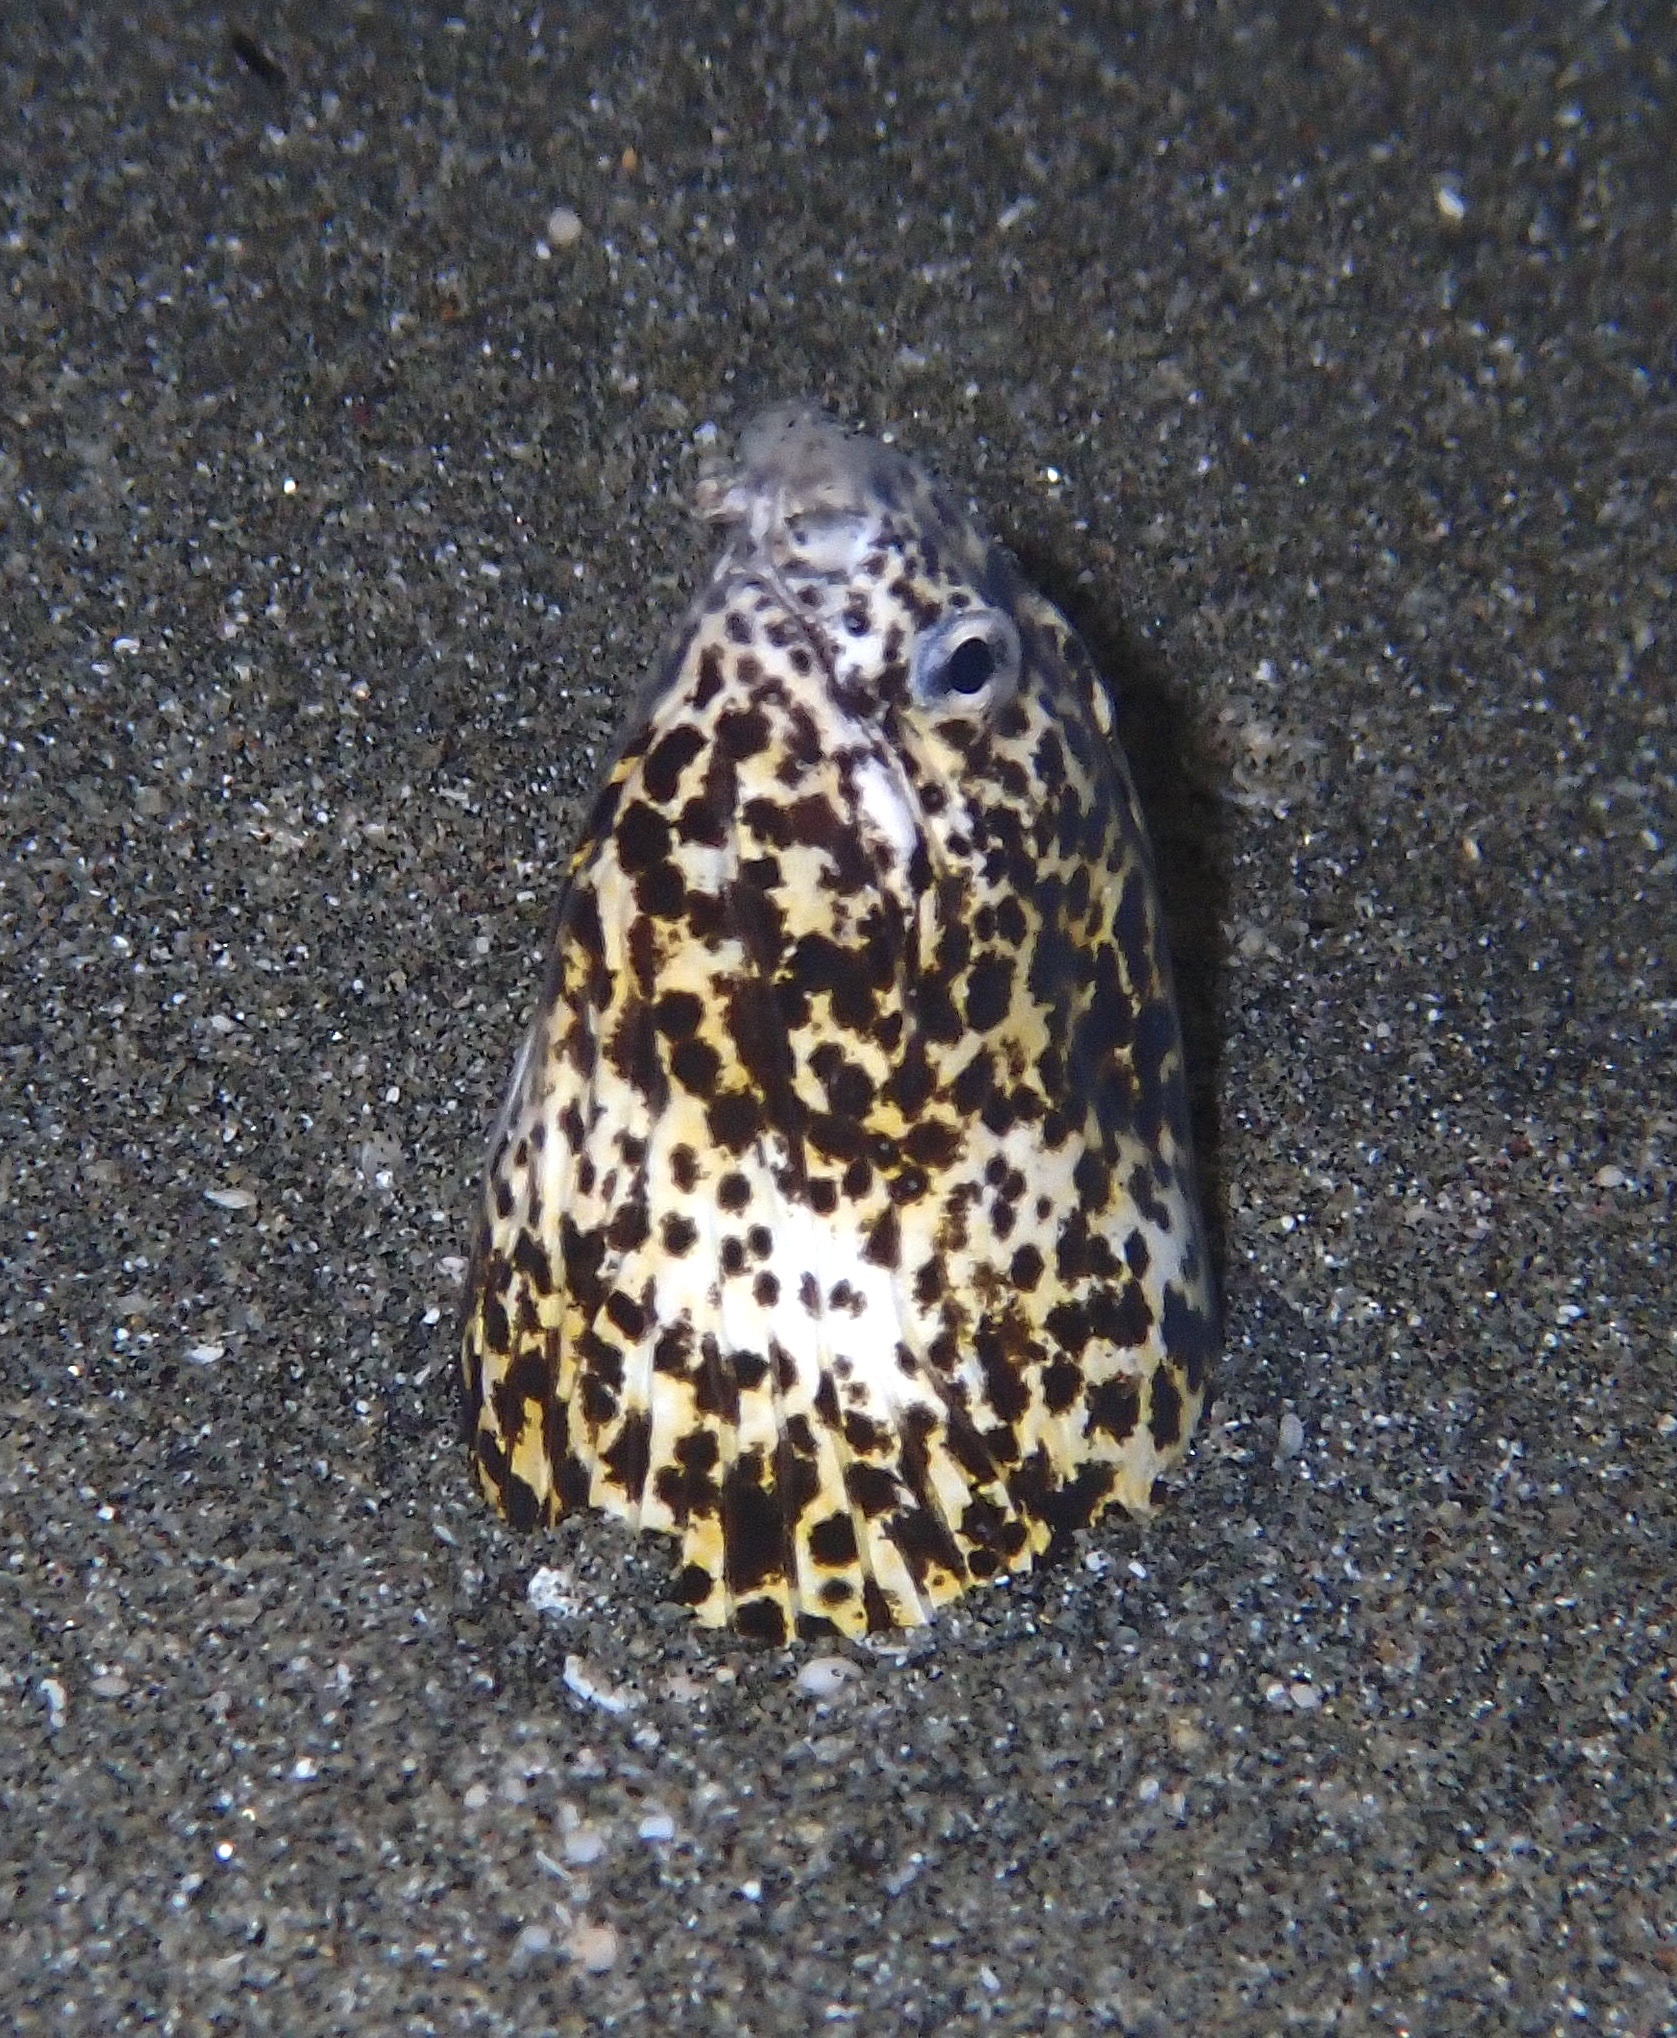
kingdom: Animalia
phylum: Chordata
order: Anguilliformes
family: Ophichthidae
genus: Callechelys
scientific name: Callechelys marmorata
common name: Marbled snake eel
